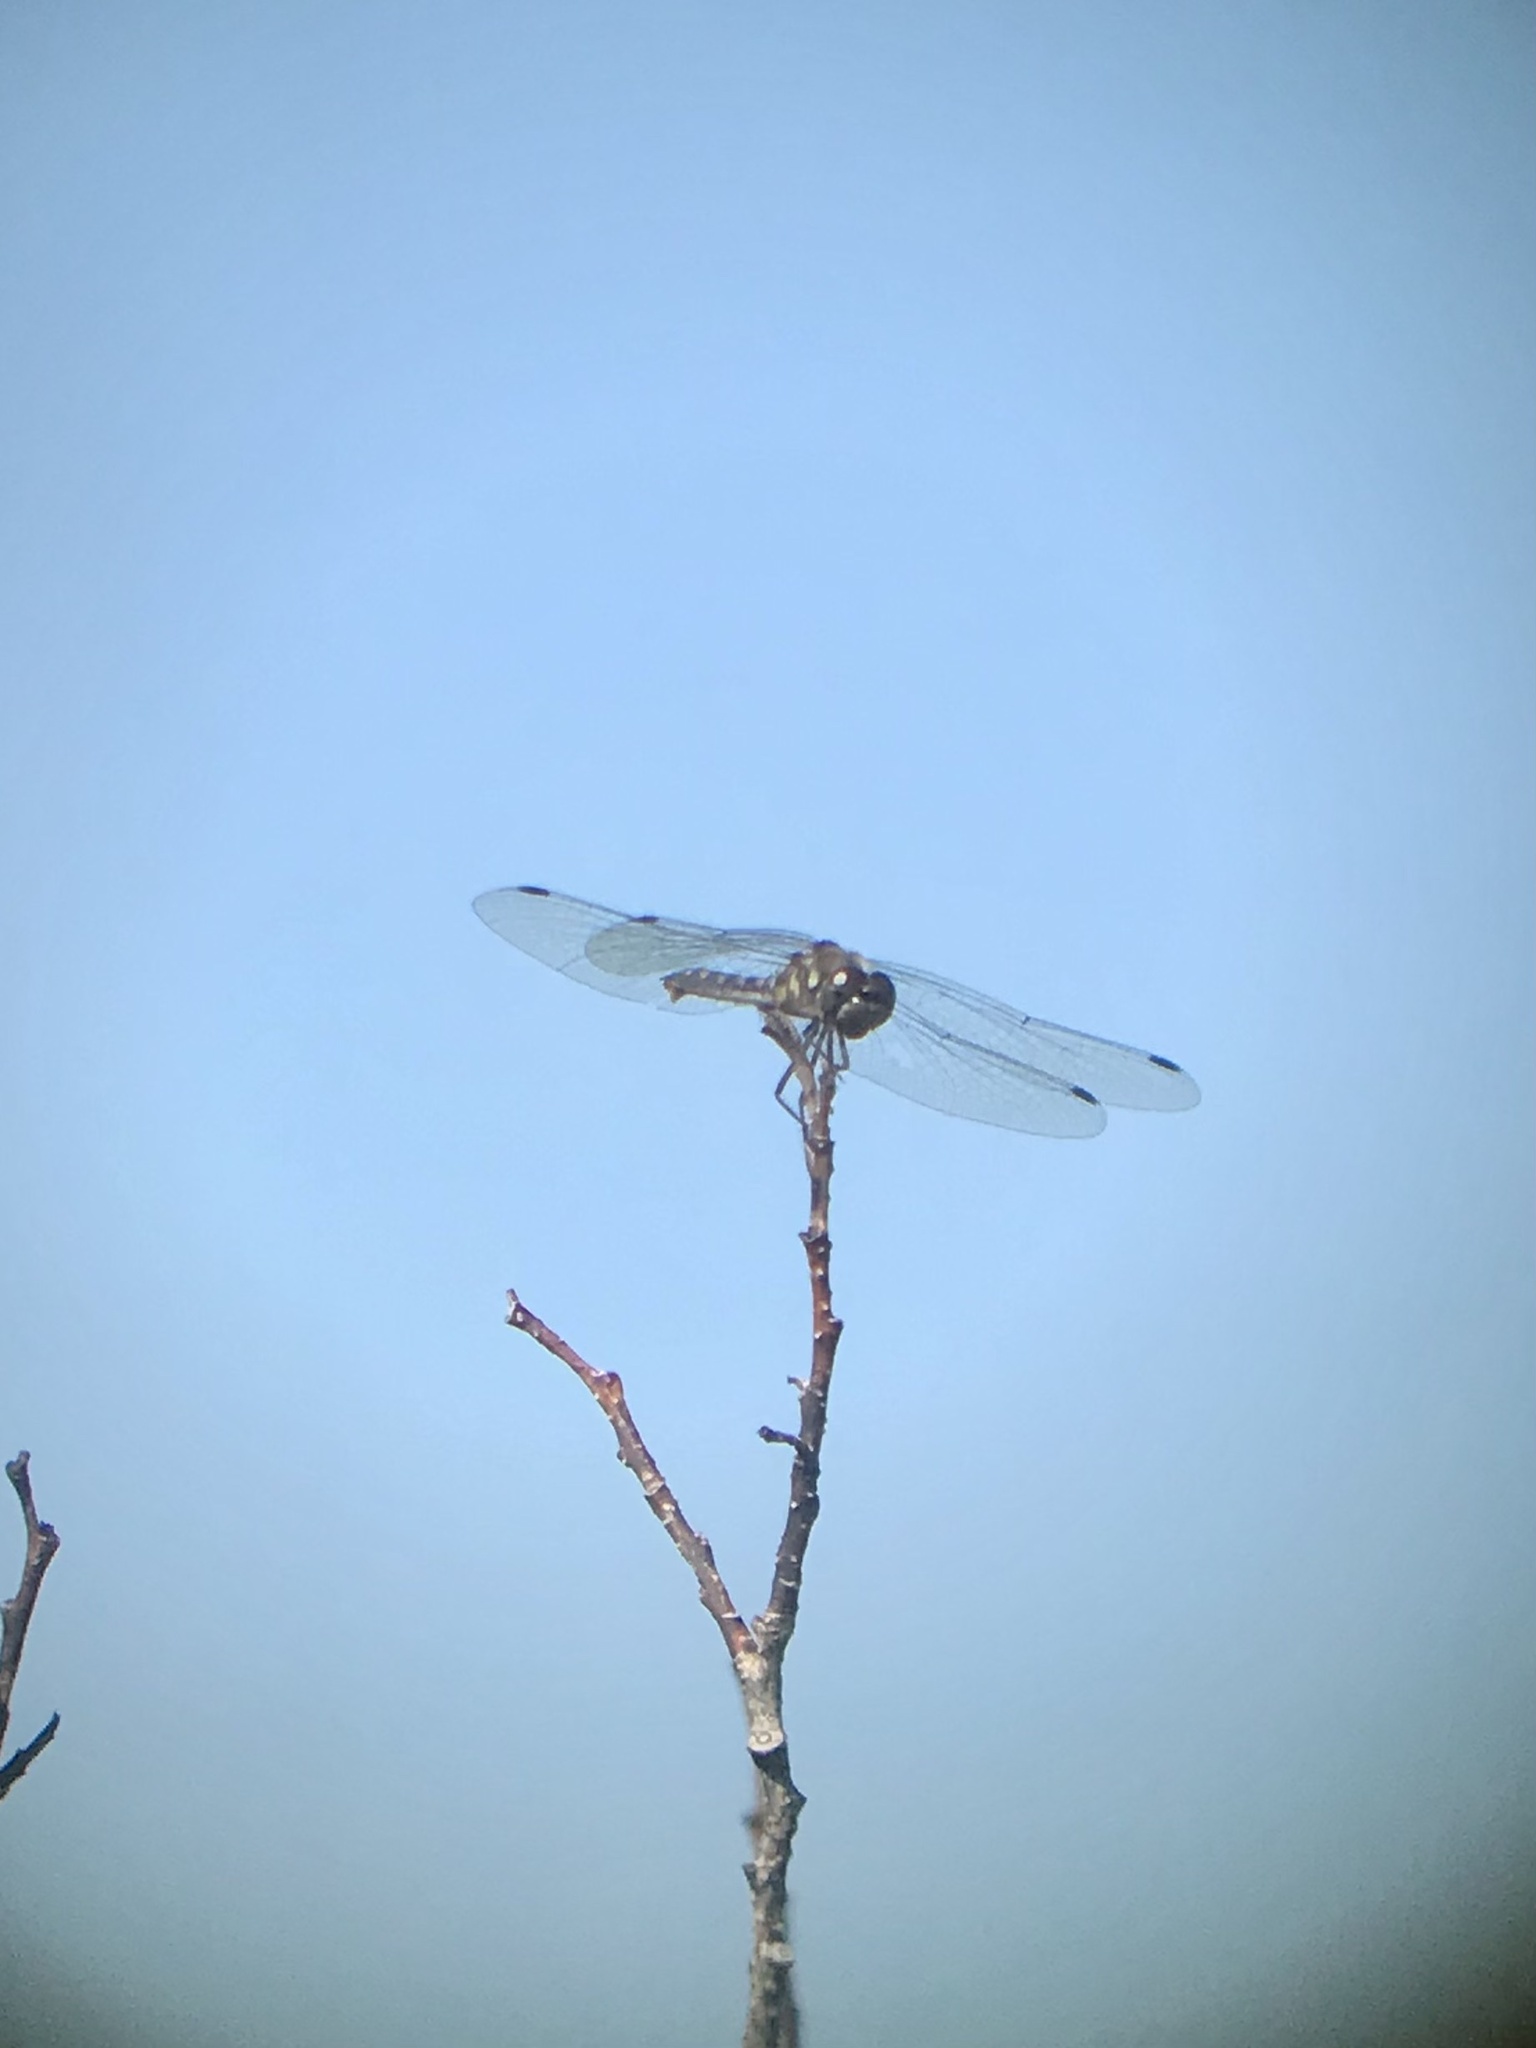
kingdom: Animalia
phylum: Arthropoda
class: Insecta
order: Odonata
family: Libellulidae
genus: Sympetrum
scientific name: Sympetrum danae
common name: Black darter
